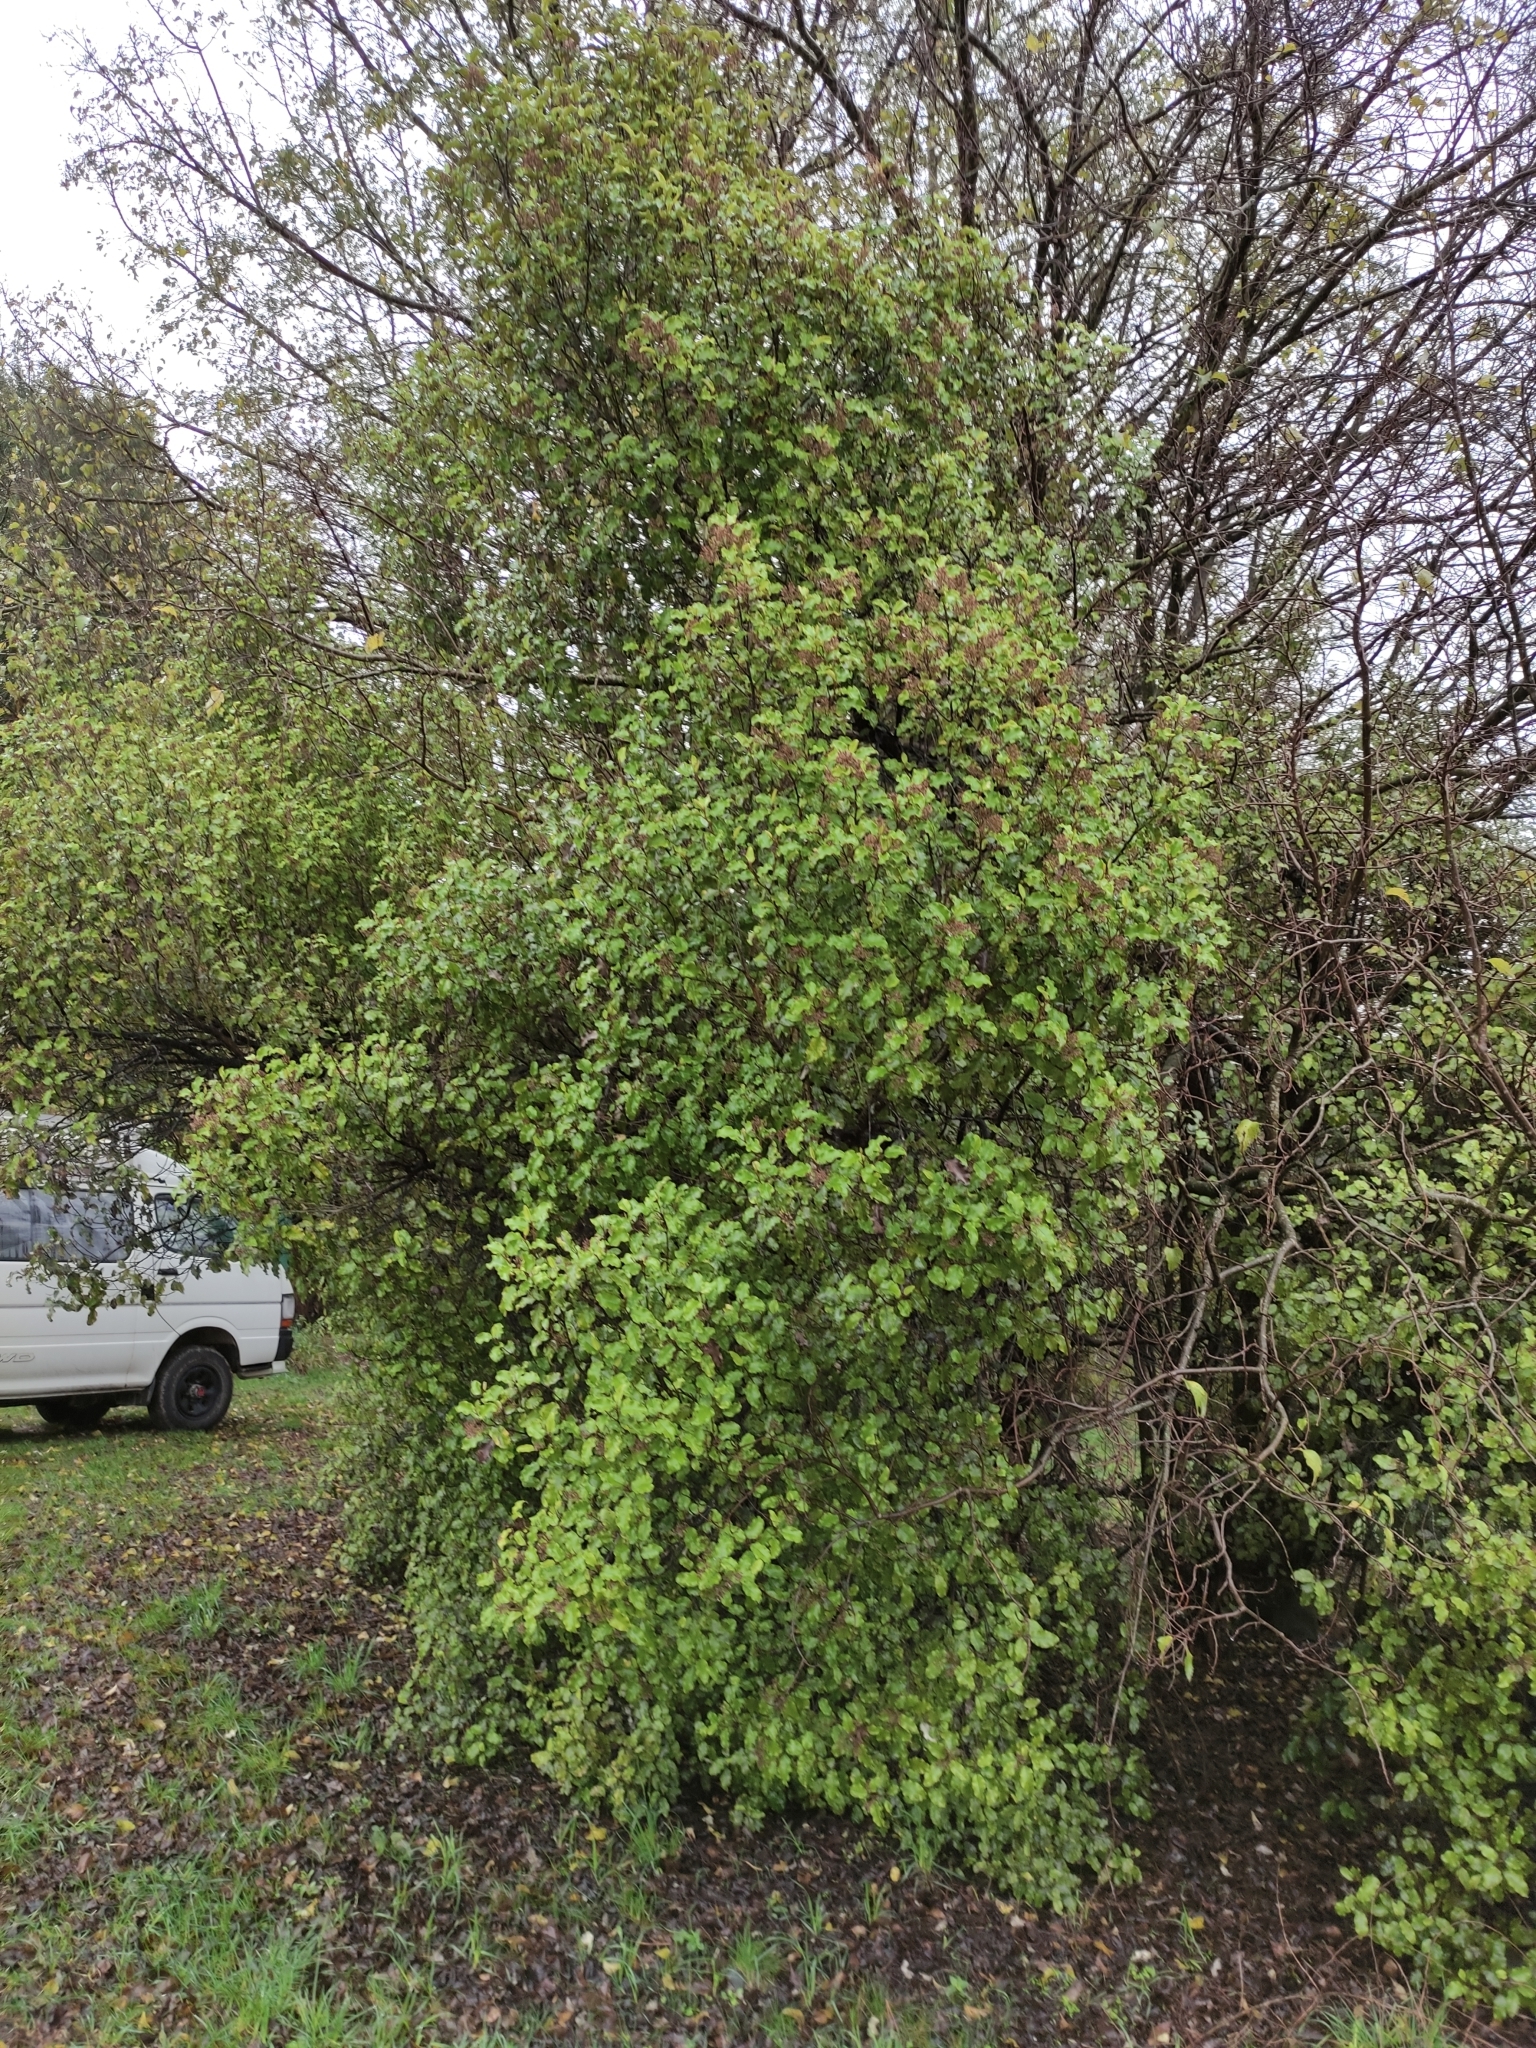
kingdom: Plantae
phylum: Tracheophyta
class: Magnoliopsida
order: Asterales
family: Asteraceae
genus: Olearia
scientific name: Olearia paniculata
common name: Akiraho
